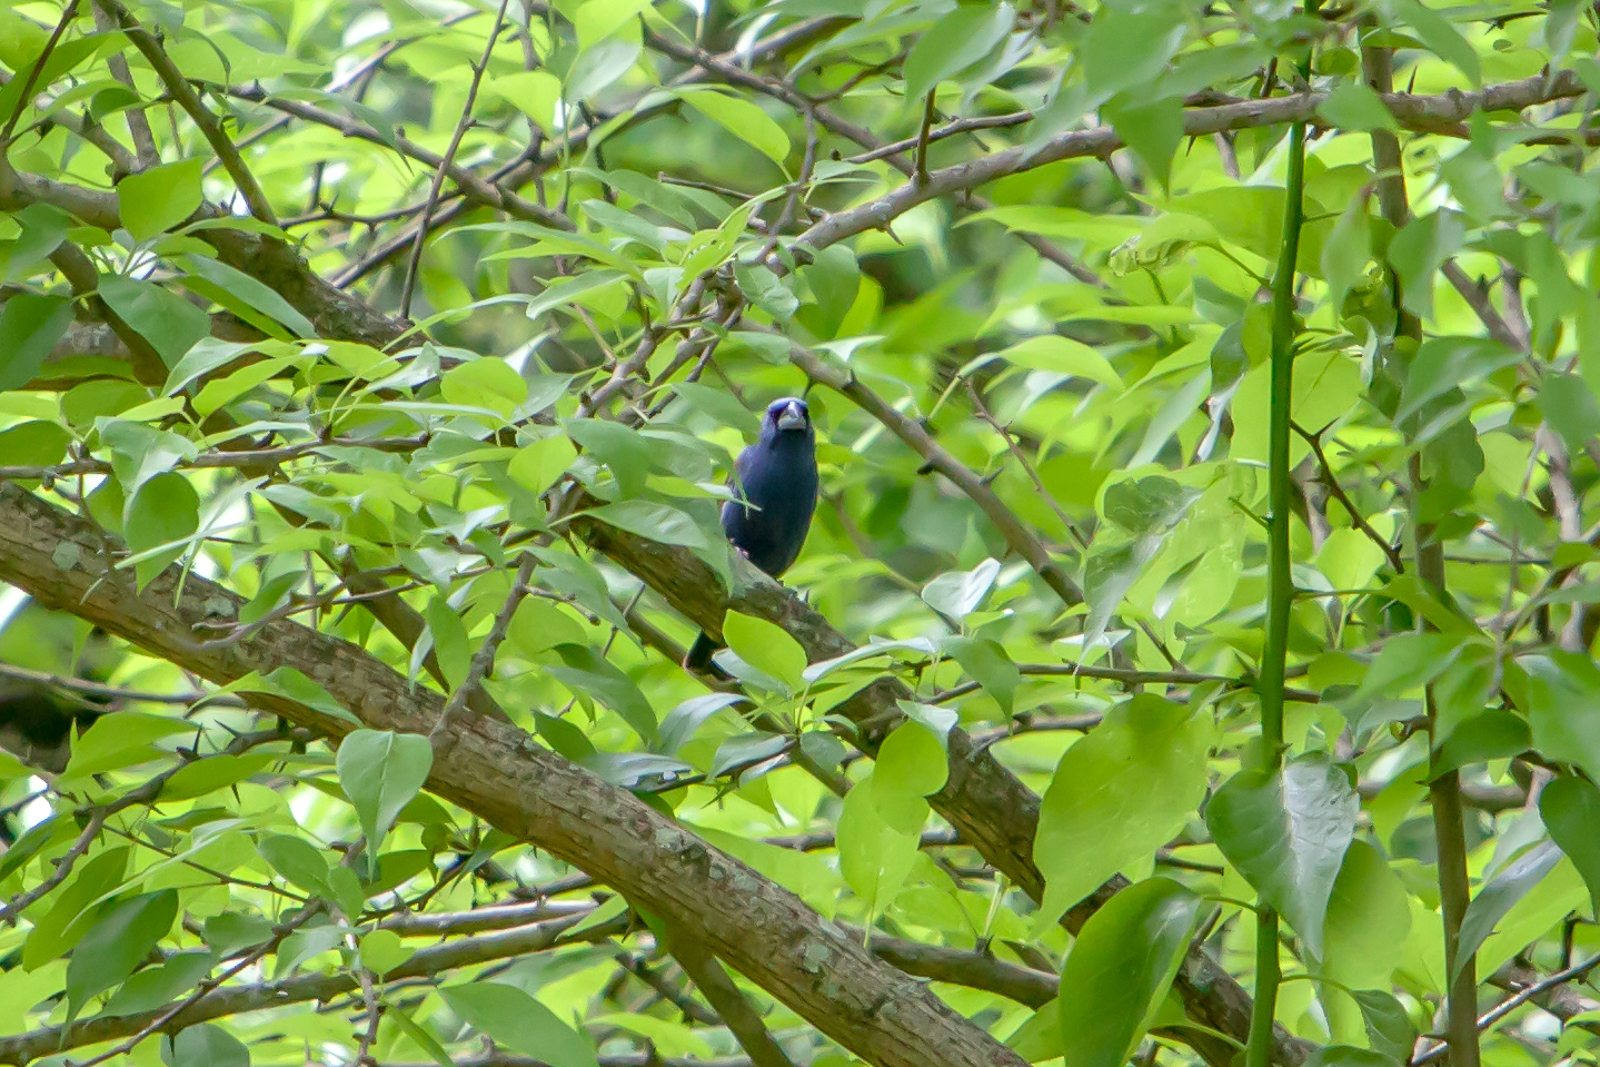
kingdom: Animalia
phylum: Chordata
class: Aves
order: Passeriformes
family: Cardinalidae
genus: Passerina
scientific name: Passerina caerulea
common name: Blue grosbeak
